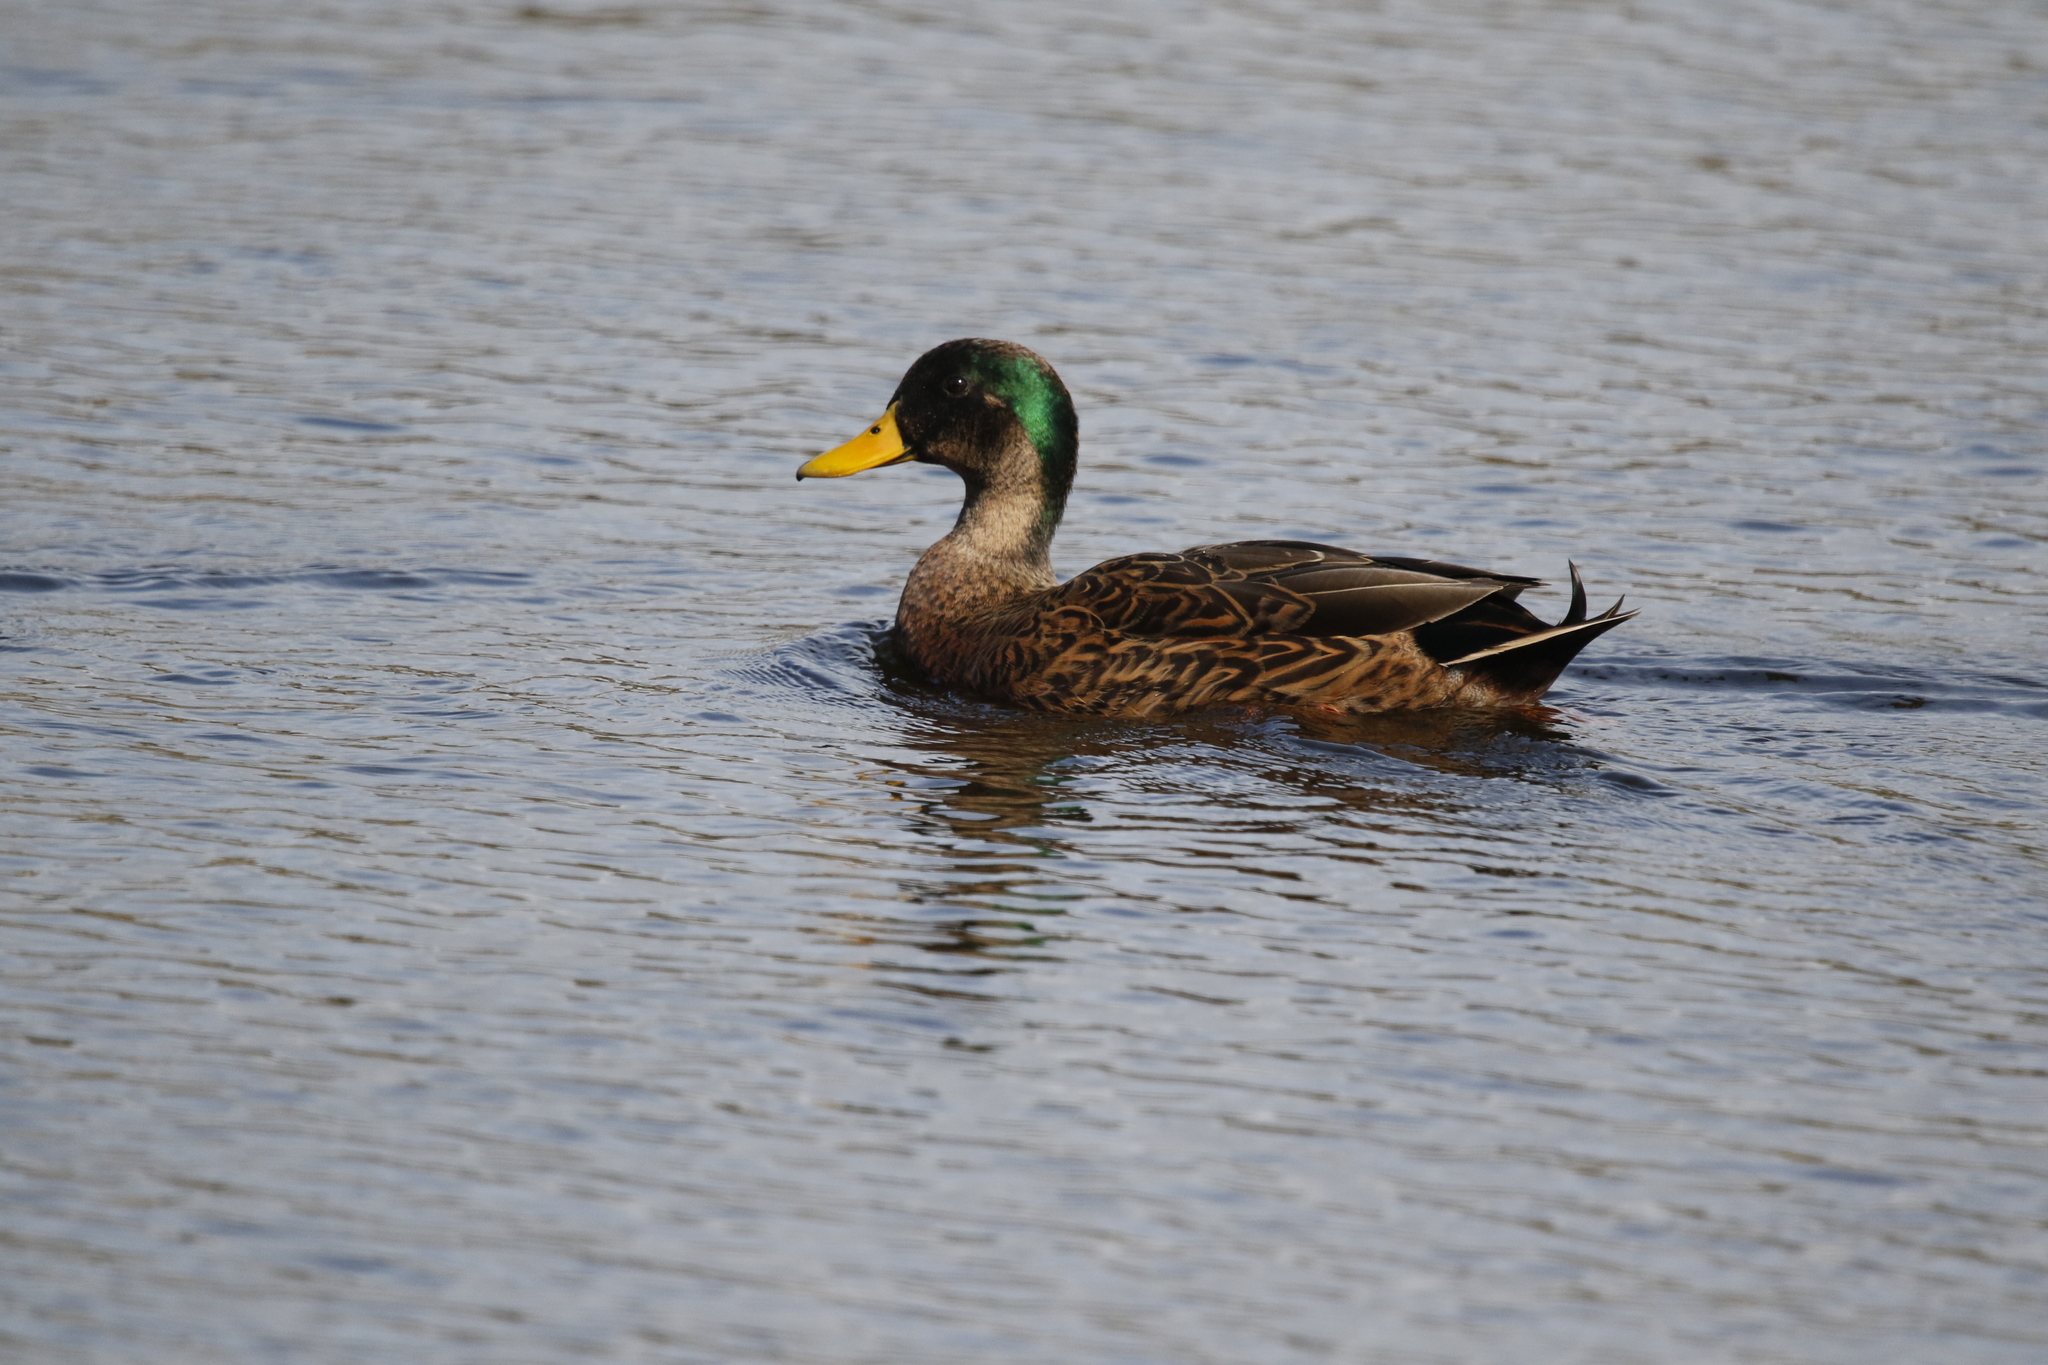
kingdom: Animalia
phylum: Chordata
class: Aves
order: Anseriformes
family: Anatidae
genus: Anas
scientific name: Anas
